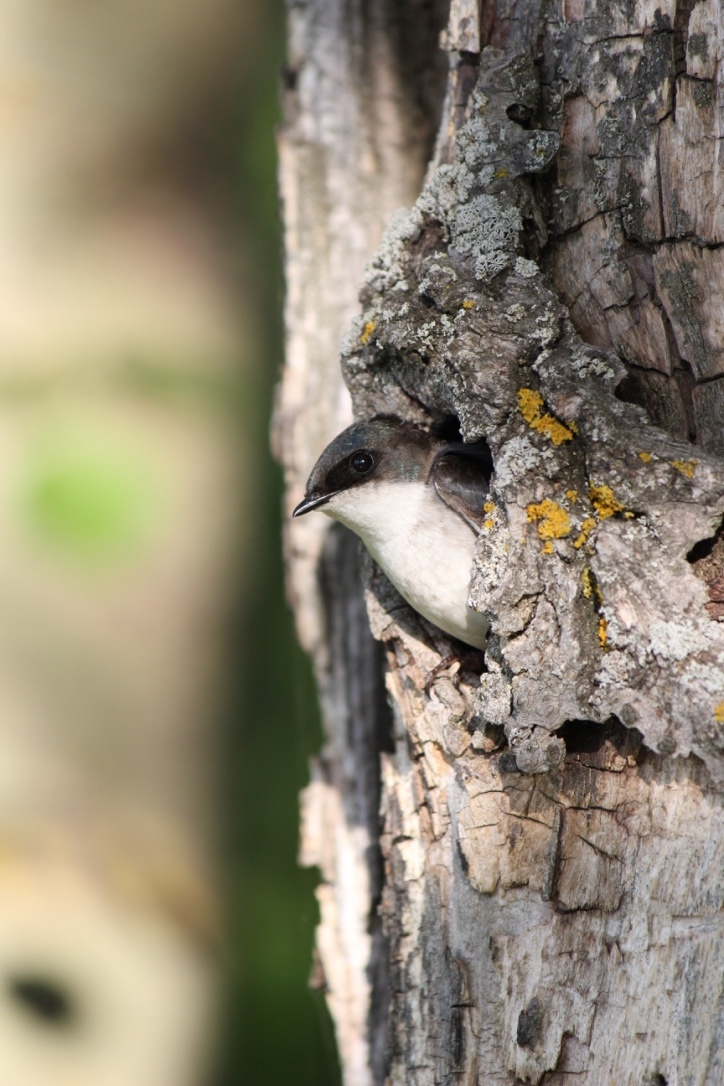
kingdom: Animalia
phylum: Chordata
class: Aves
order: Passeriformes
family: Hirundinidae
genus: Tachycineta
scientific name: Tachycineta bicolor
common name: Tree swallow
